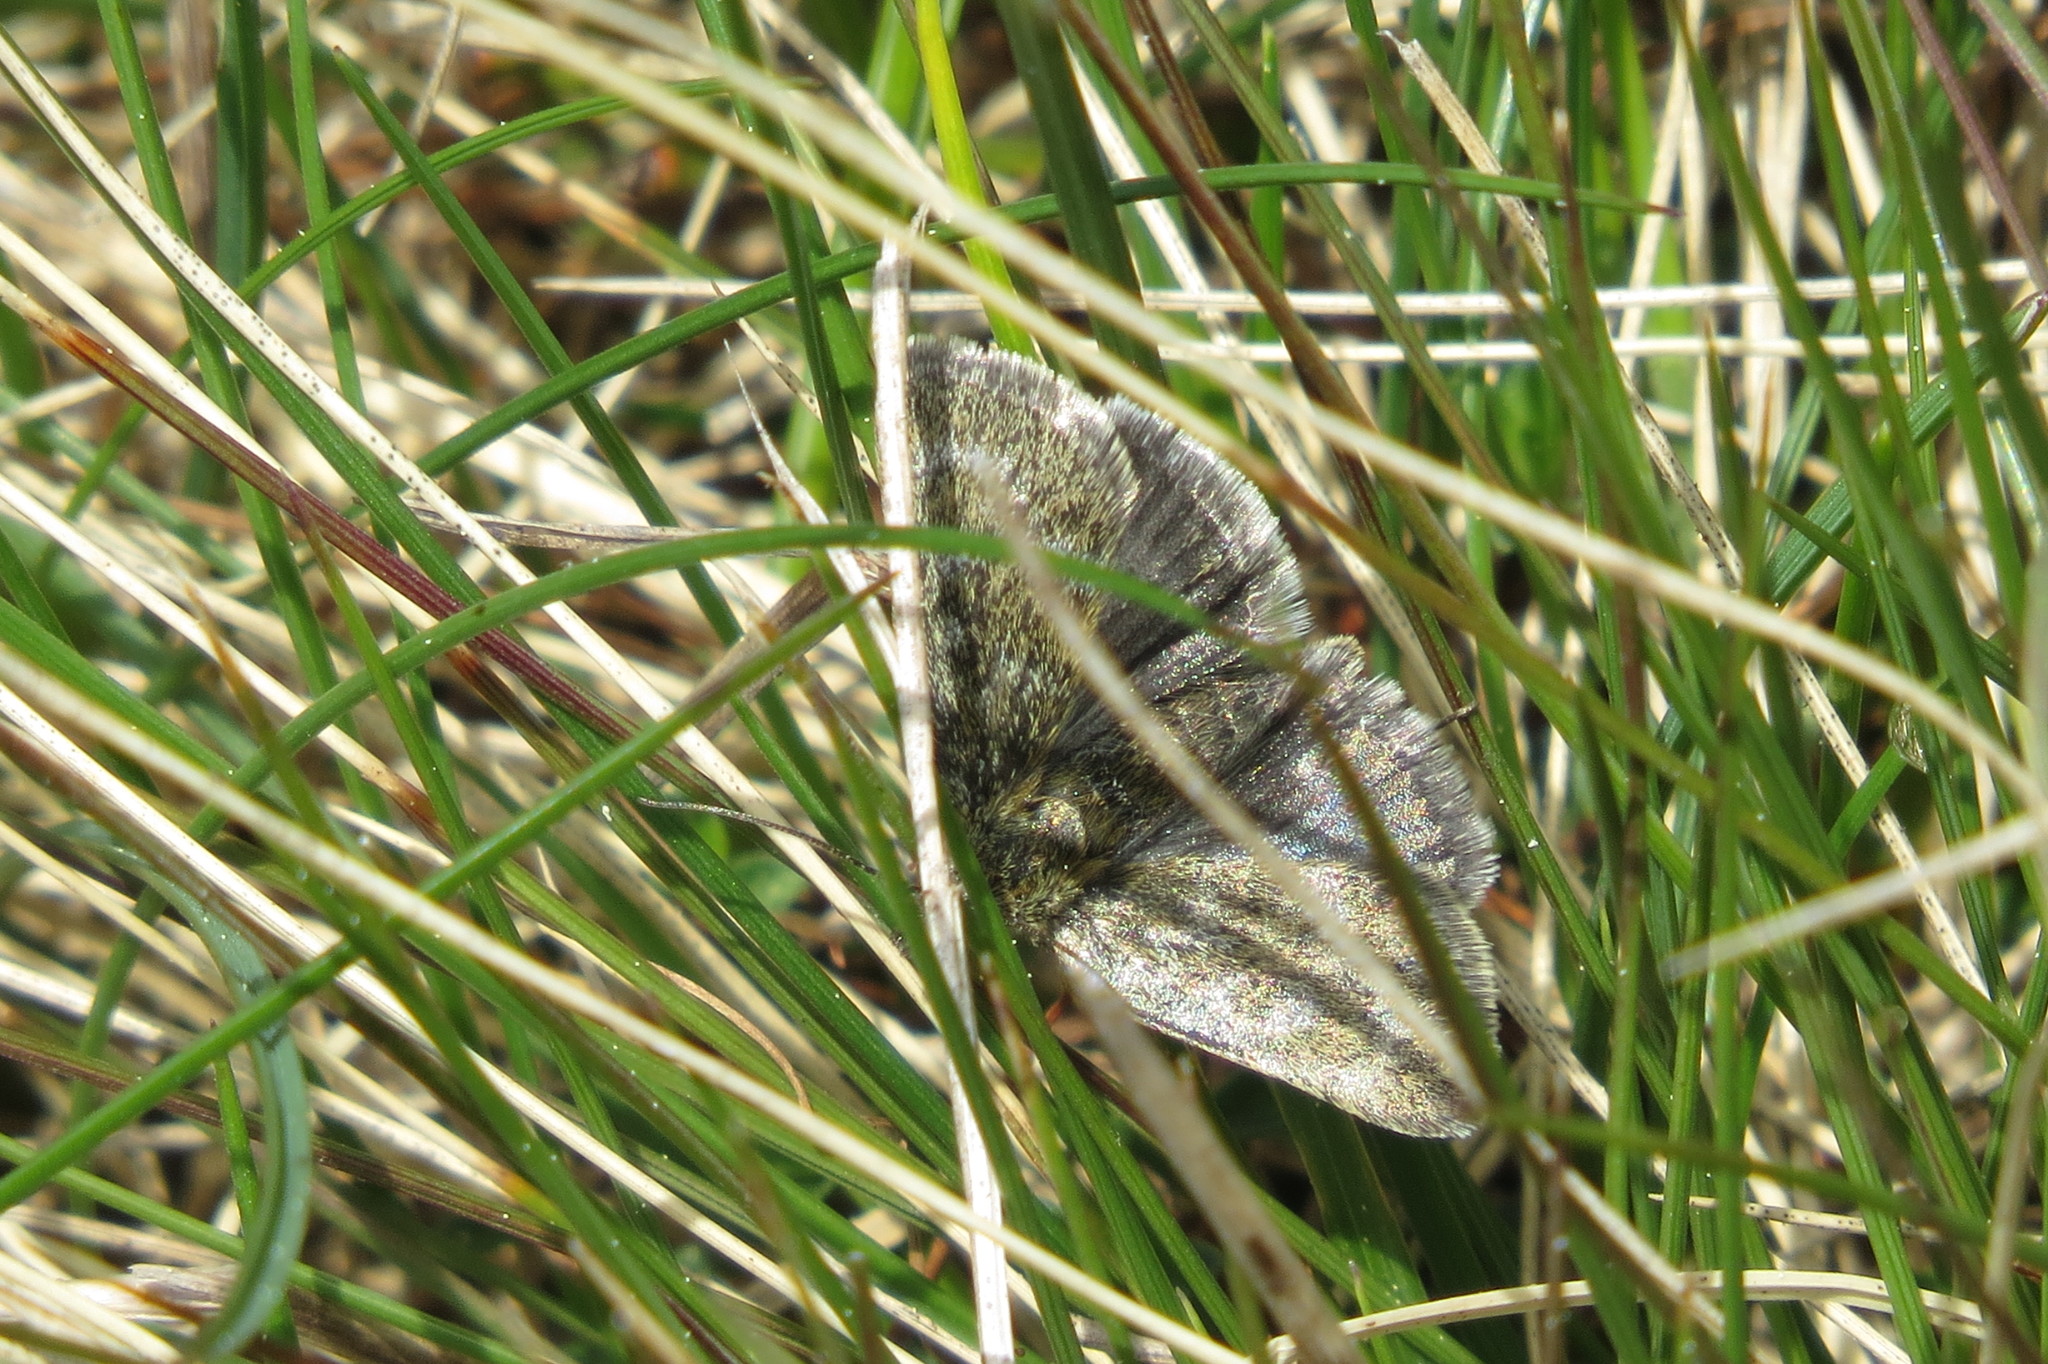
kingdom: Animalia
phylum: Arthropoda
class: Insecta
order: Lepidoptera
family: Crambidae
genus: Metaxmeste
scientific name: Metaxmeste phrygialis
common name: Black mountain pearl
